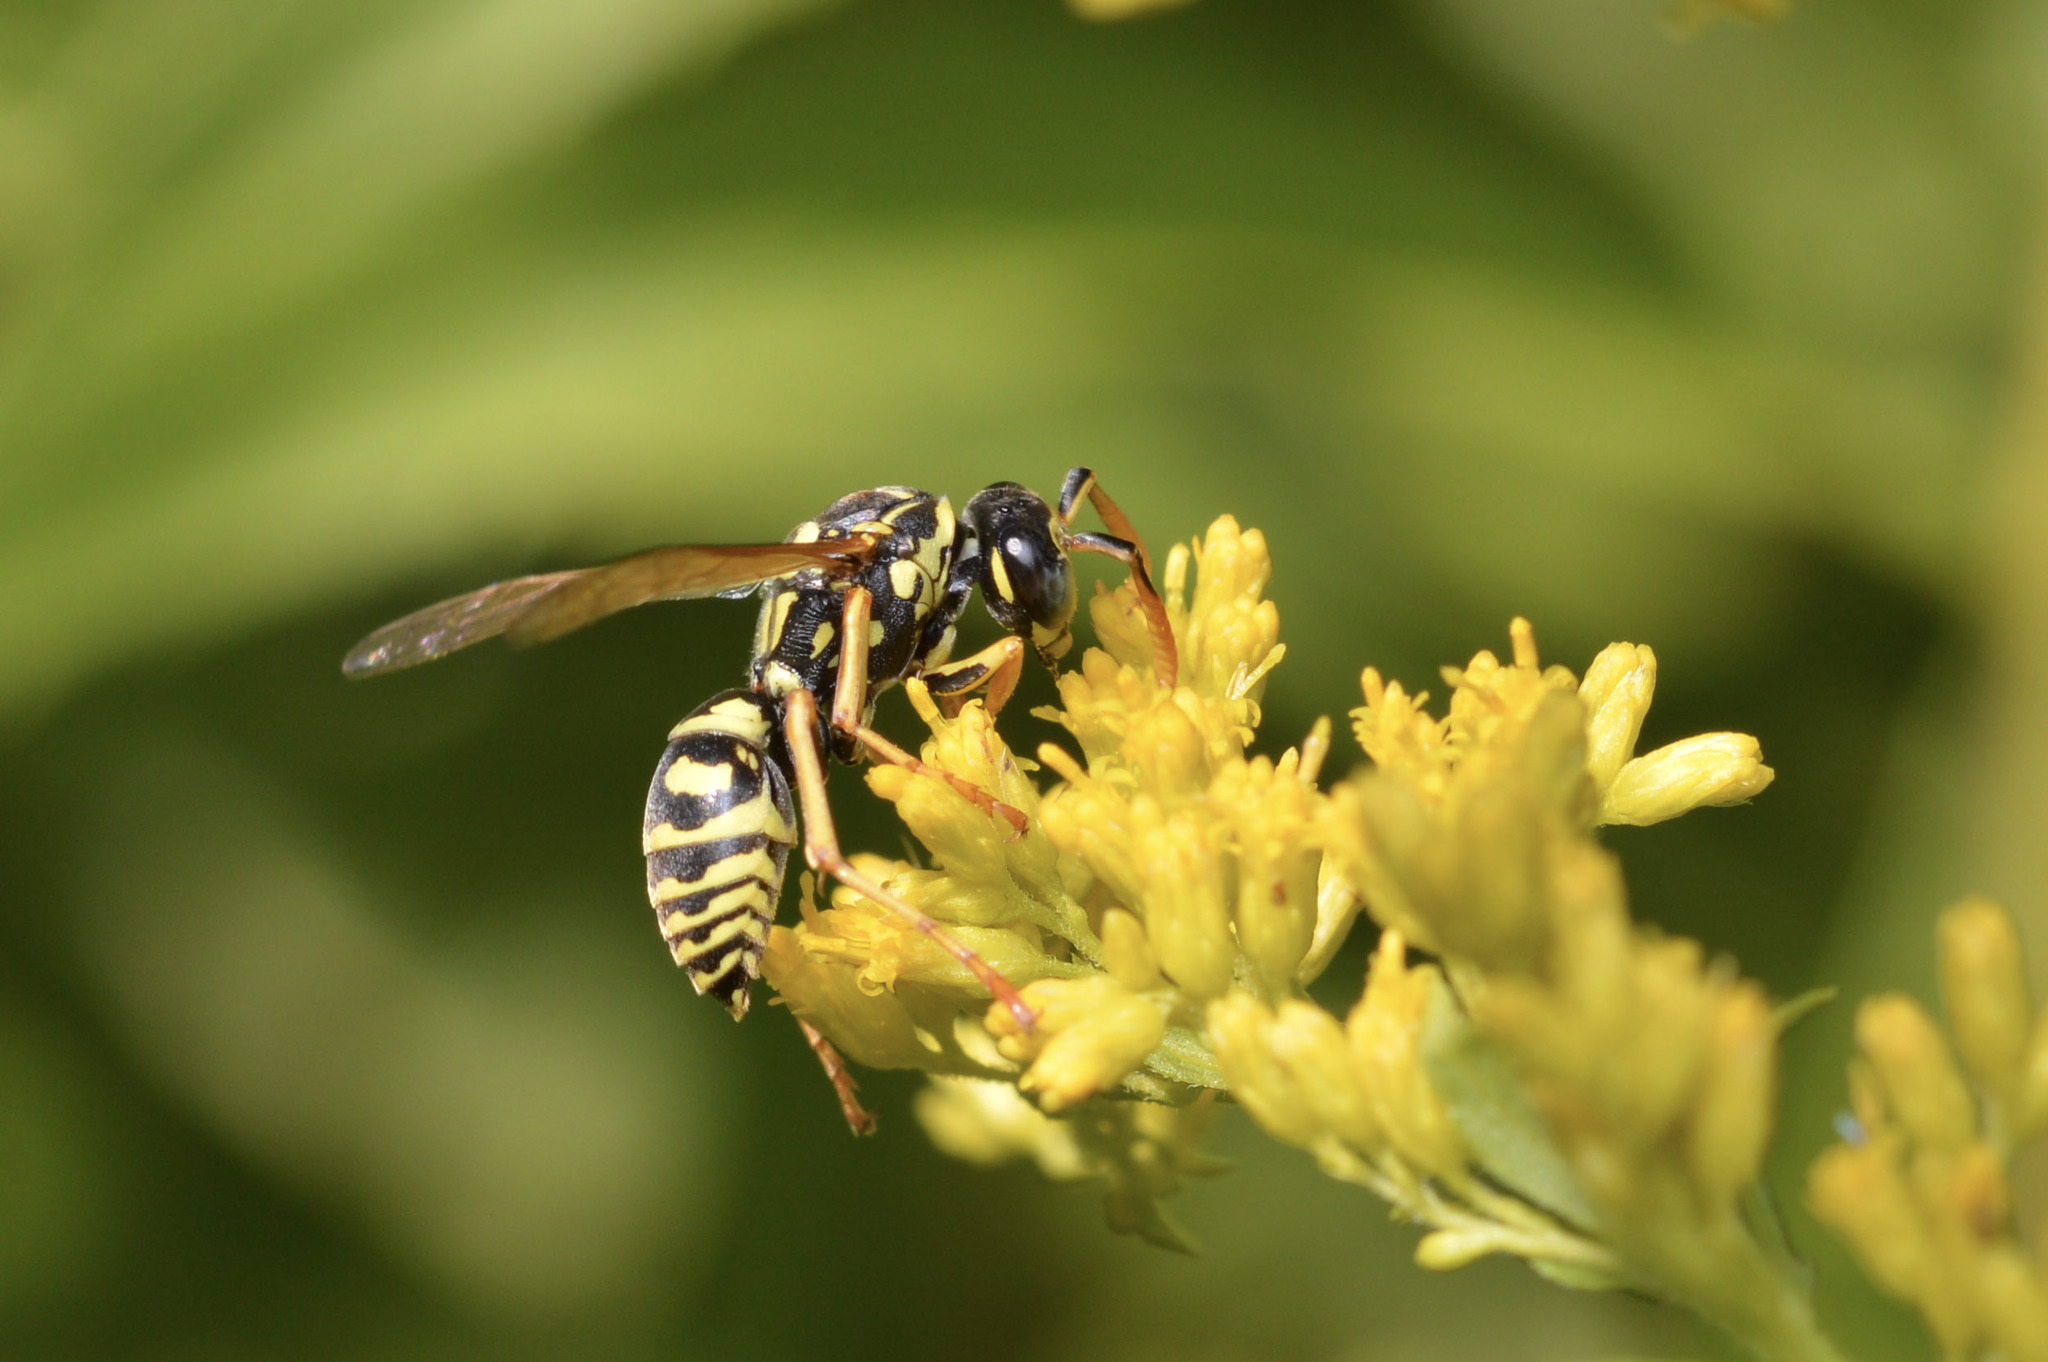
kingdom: Animalia
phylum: Arthropoda
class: Insecta
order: Hymenoptera
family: Eumenidae
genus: Polistes
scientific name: Polistes dominula
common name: Paper wasp
